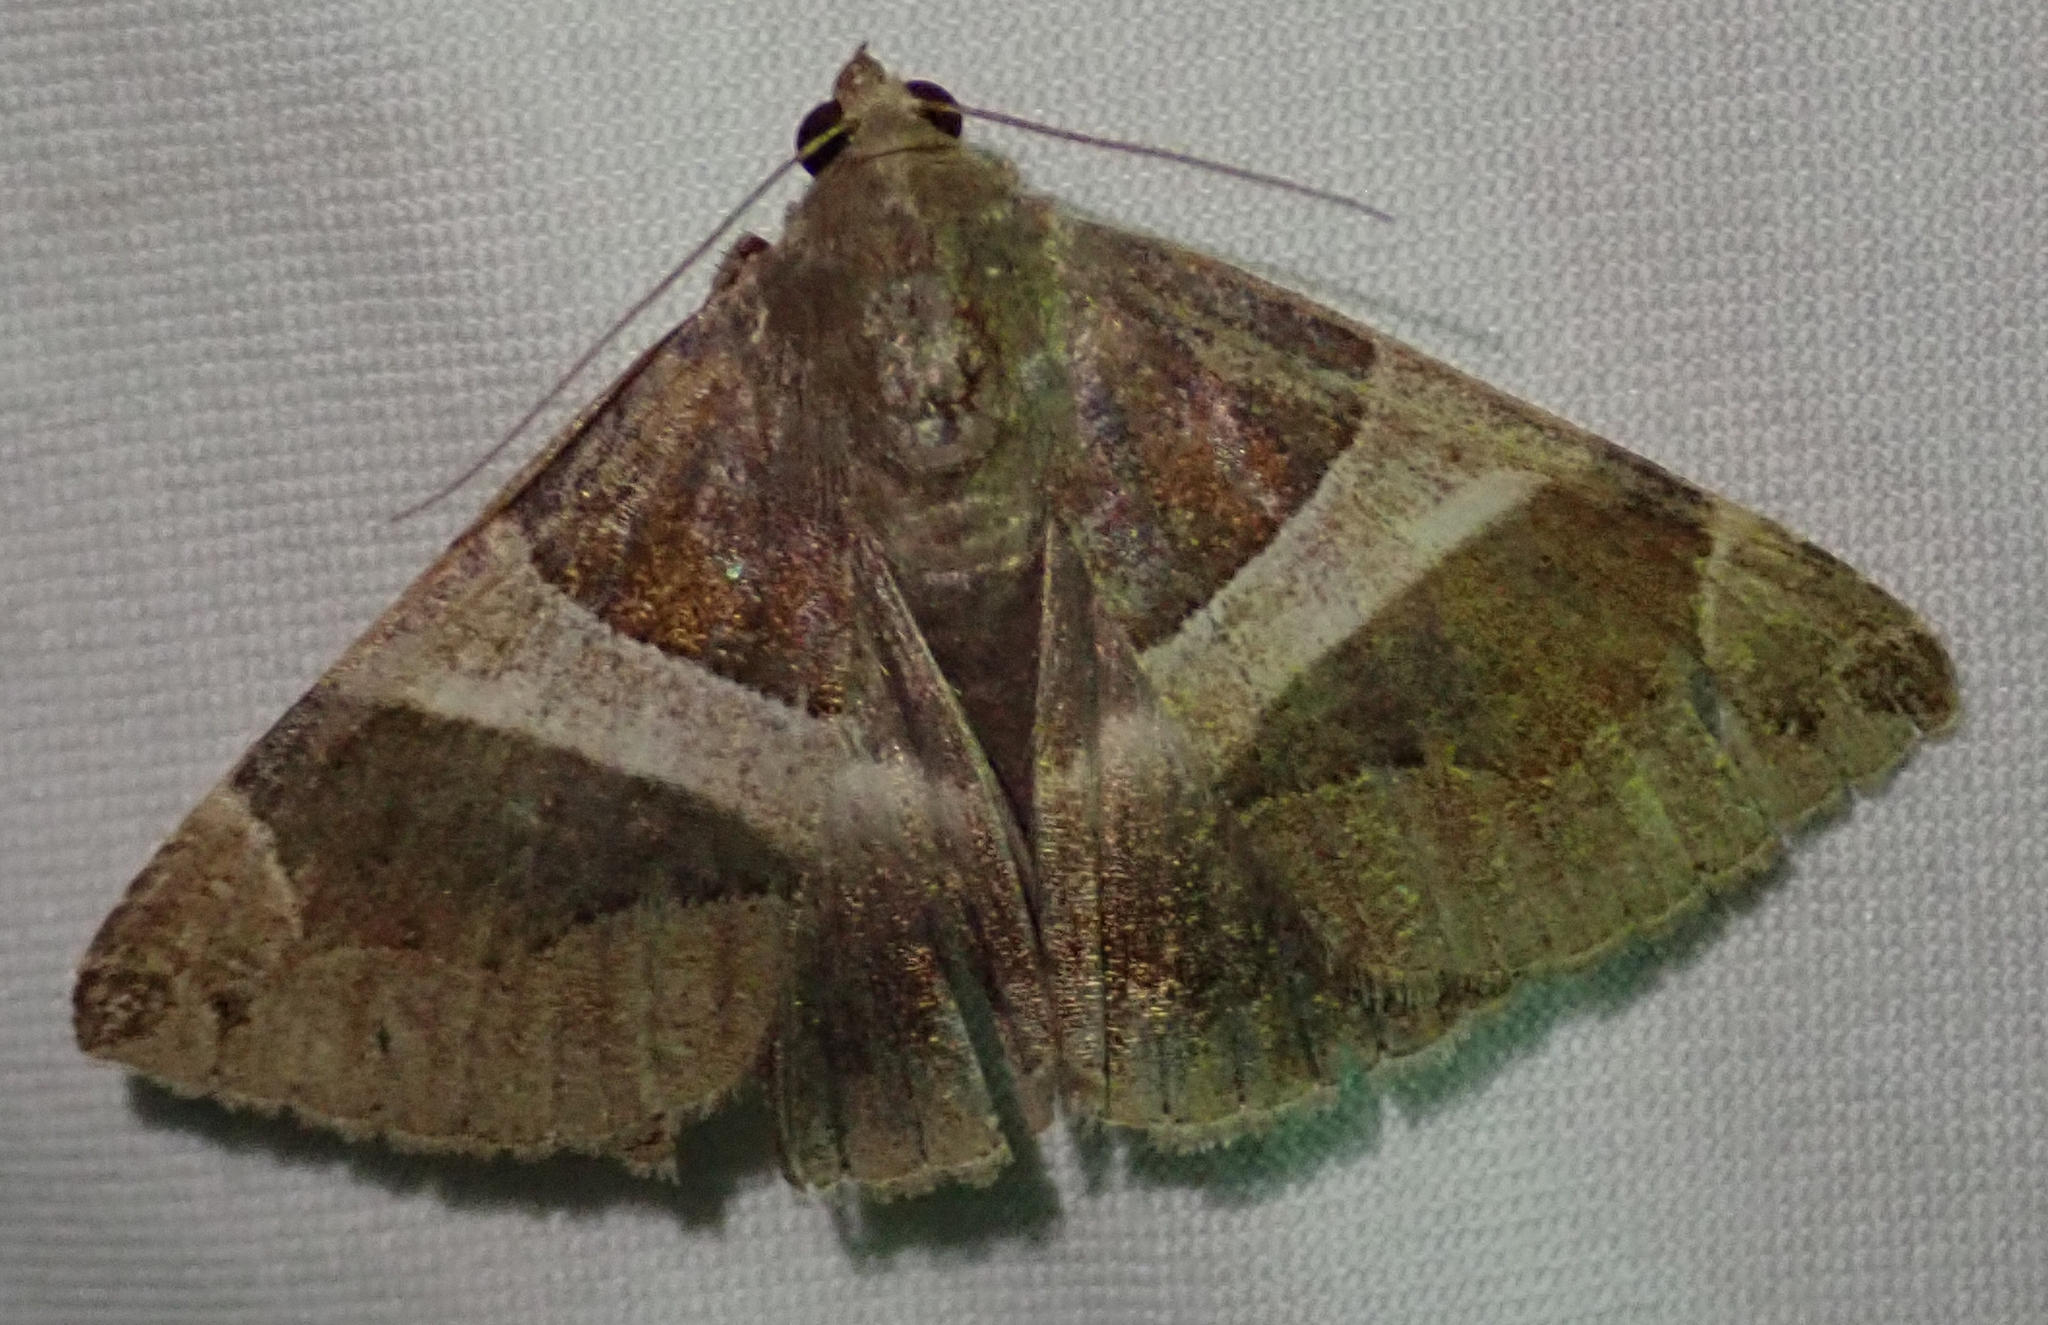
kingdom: Animalia
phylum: Arthropoda
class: Insecta
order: Lepidoptera
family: Erebidae
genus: Dysgonia
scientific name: Dysgonia torrida
